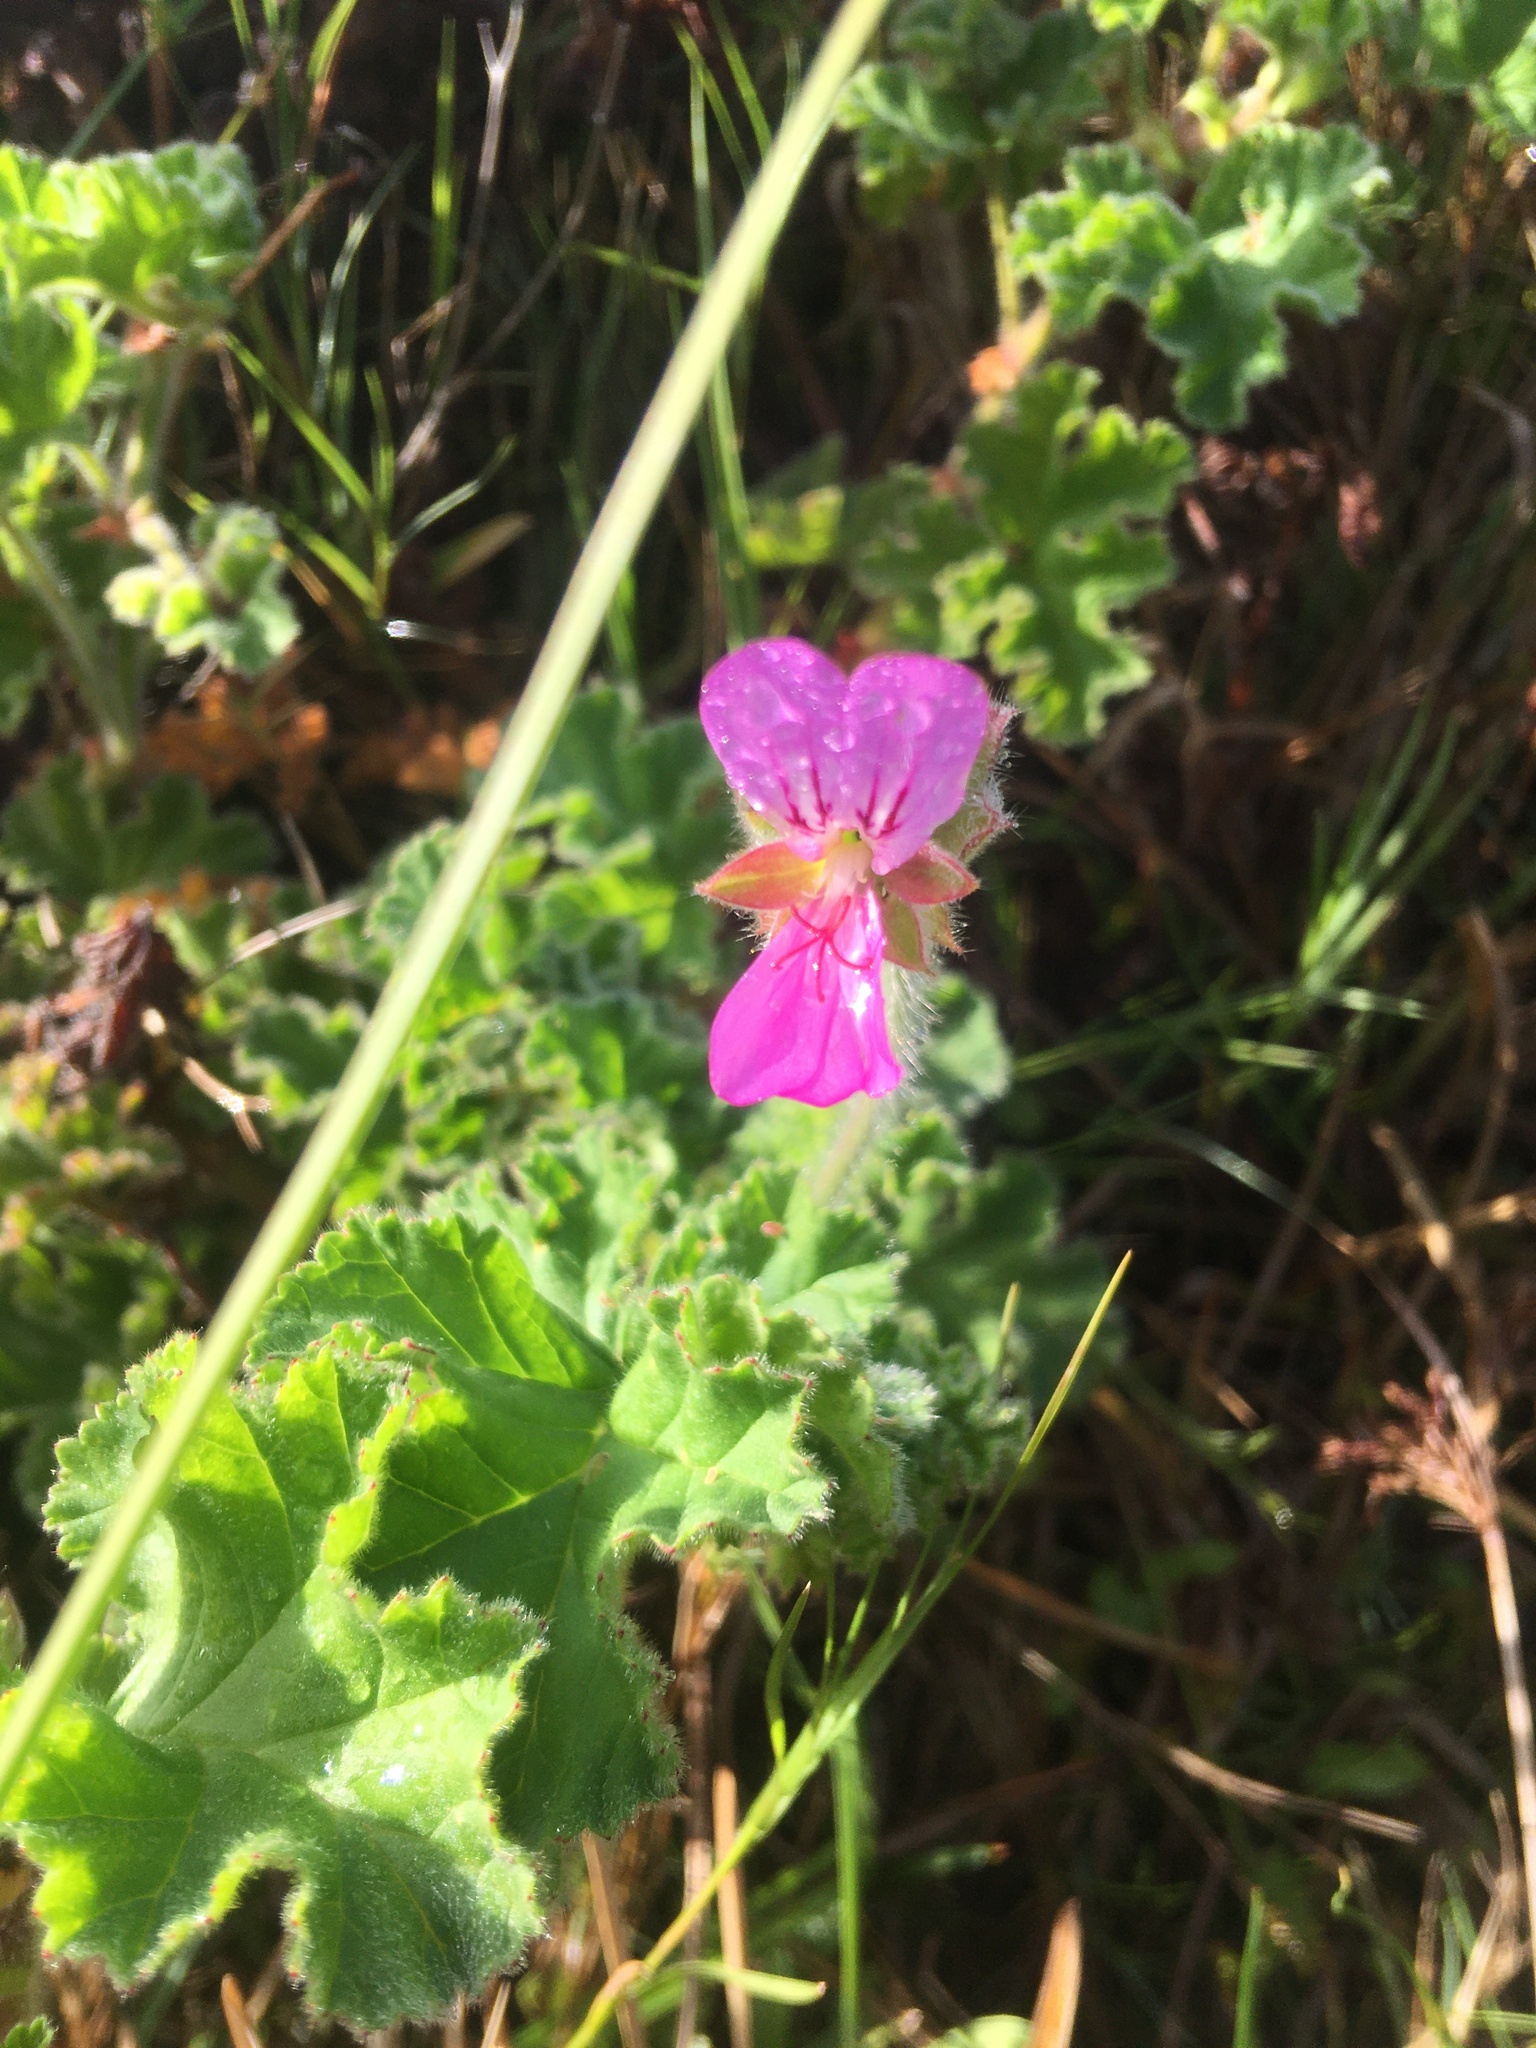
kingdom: Plantae
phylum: Tracheophyta
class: Magnoliopsida
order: Geraniales
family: Geraniaceae
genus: Pelargonium
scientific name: Pelargonium capitatum
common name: Rose scented geranium
